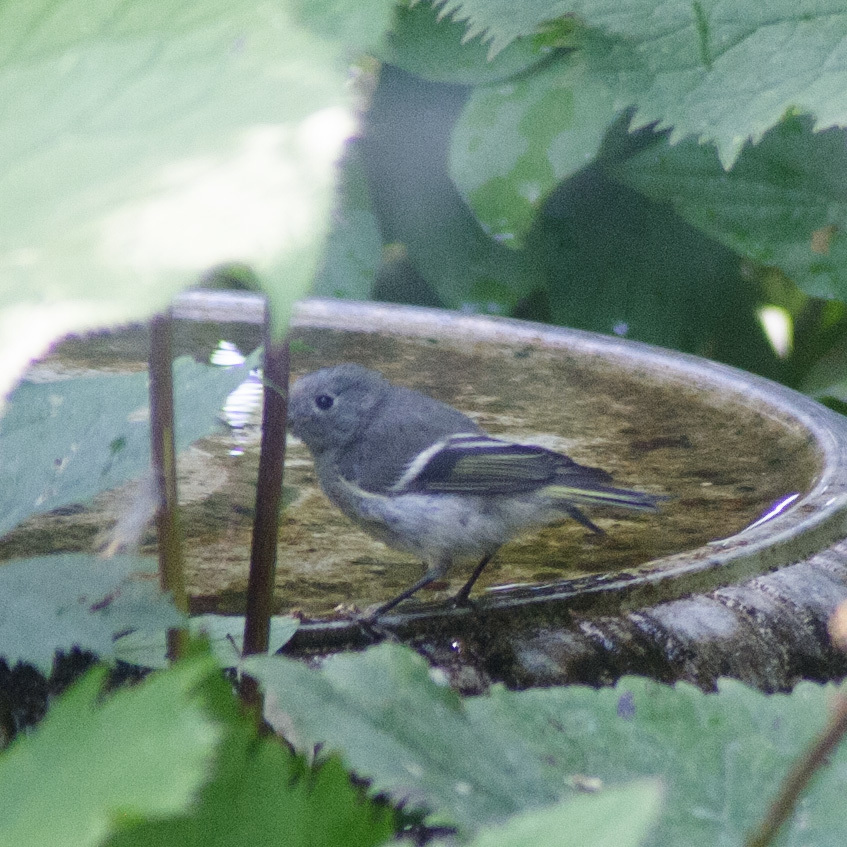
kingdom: Animalia
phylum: Chordata
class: Aves
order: Passeriformes
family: Regulidae
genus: Regulus
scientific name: Regulus calendula
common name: Ruby-crowned kinglet
